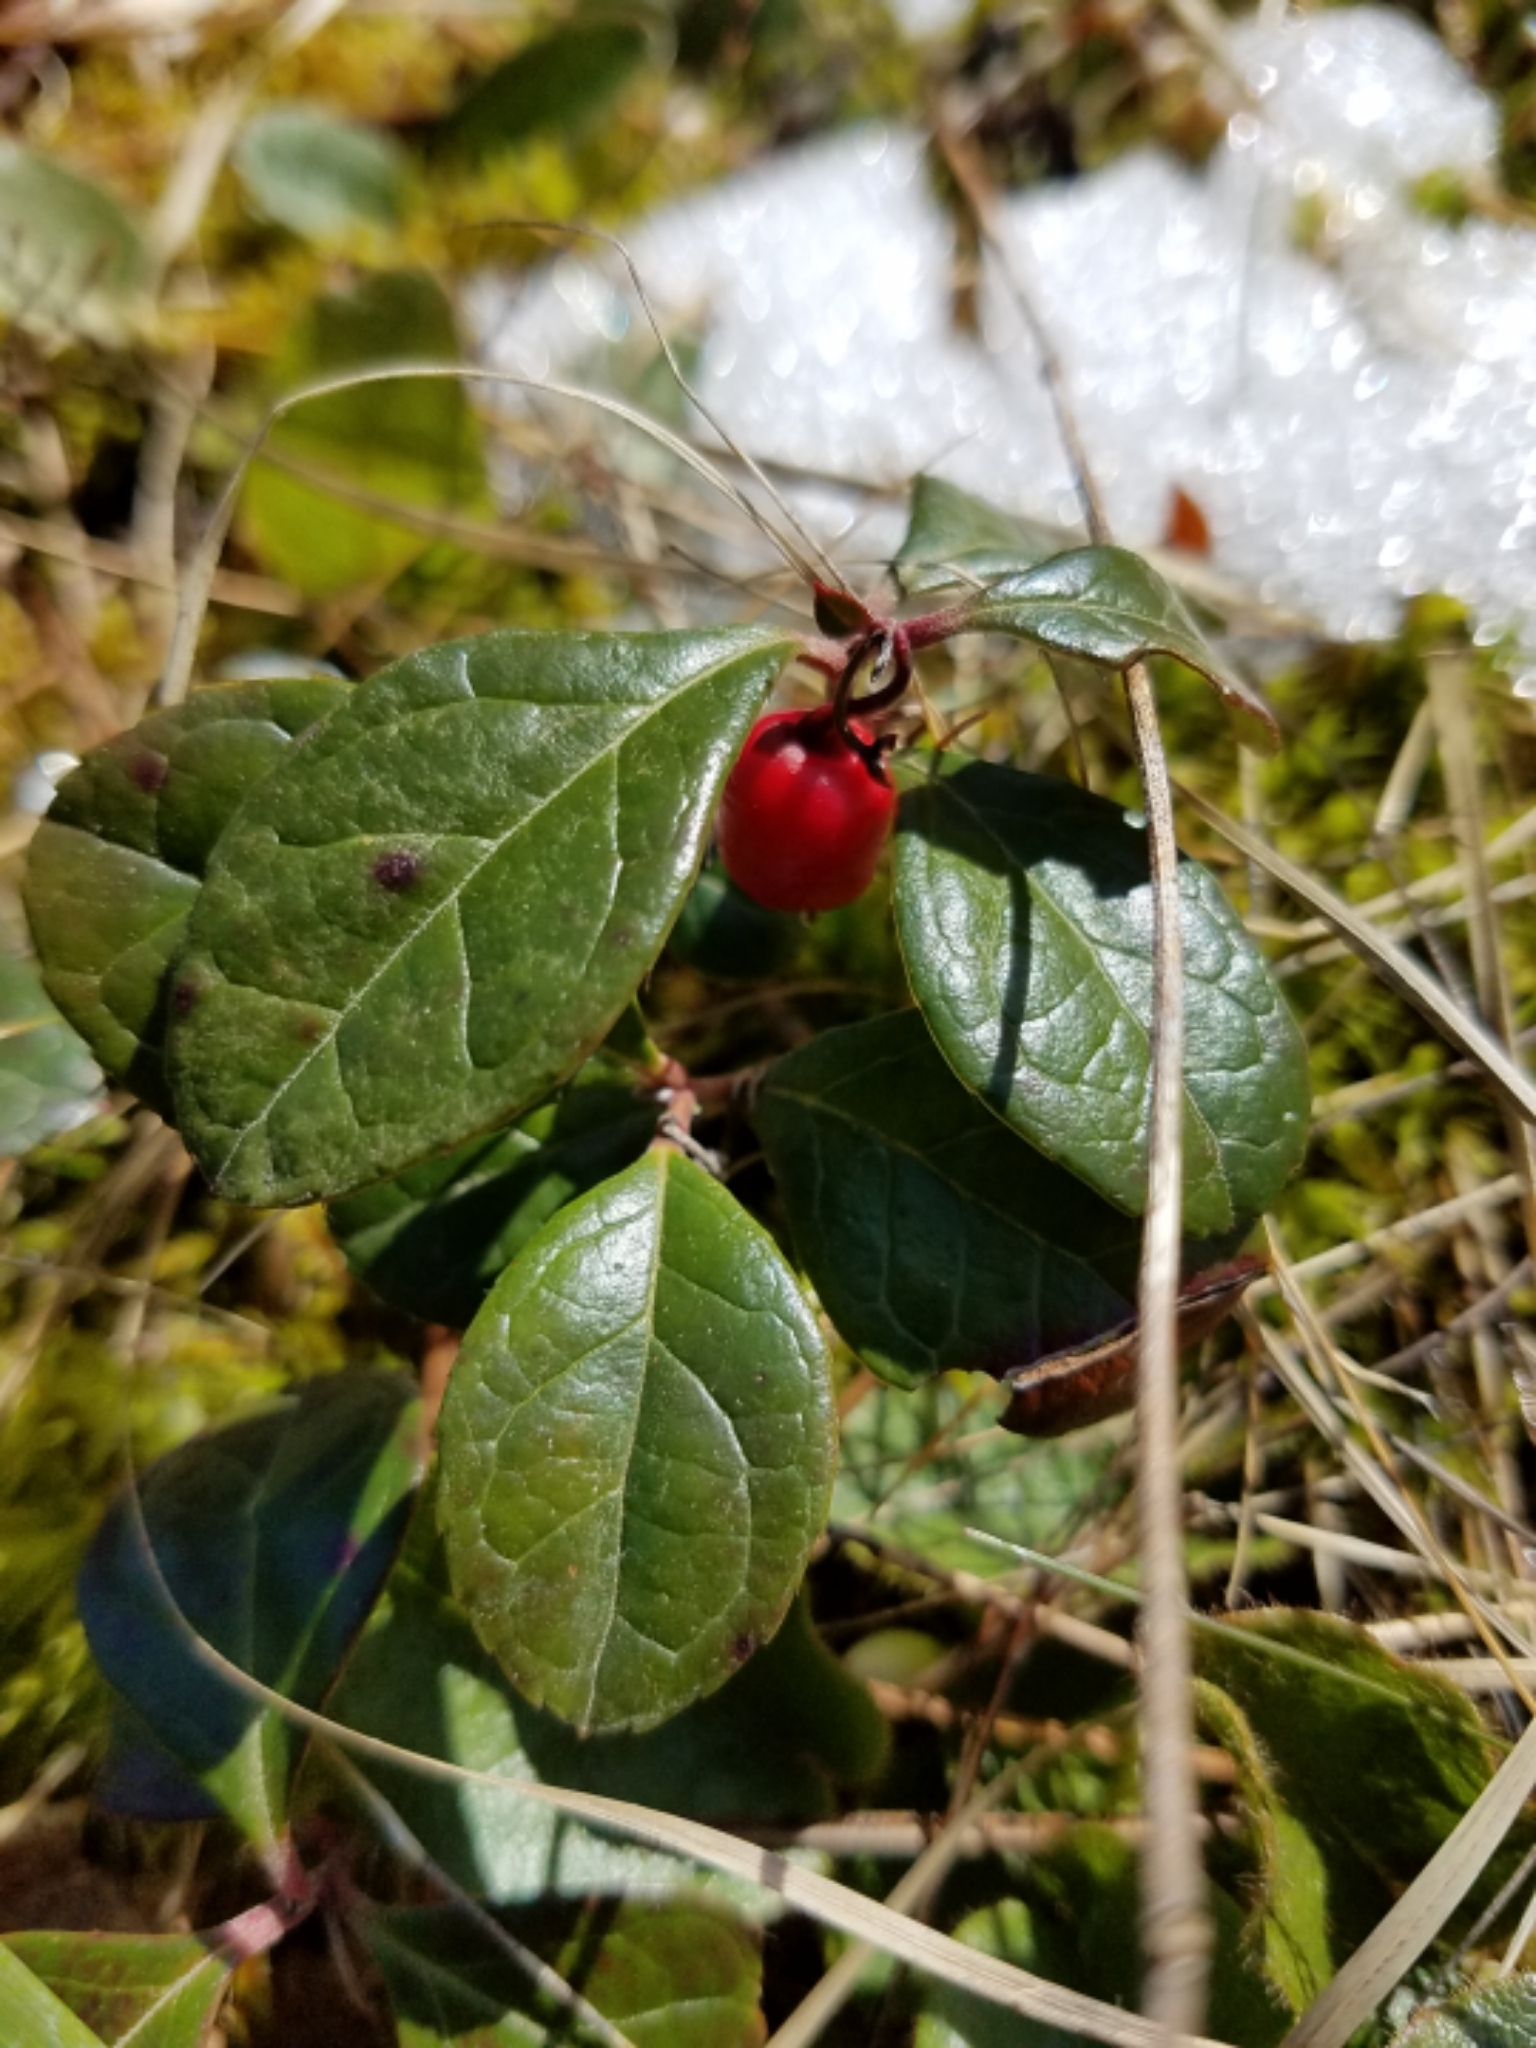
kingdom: Plantae
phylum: Tracheophyta
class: Magnoliopsida
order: Ericales
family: Ericaceae
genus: Gaultheria
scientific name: Gaultheria procumbens
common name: Checkerberry
